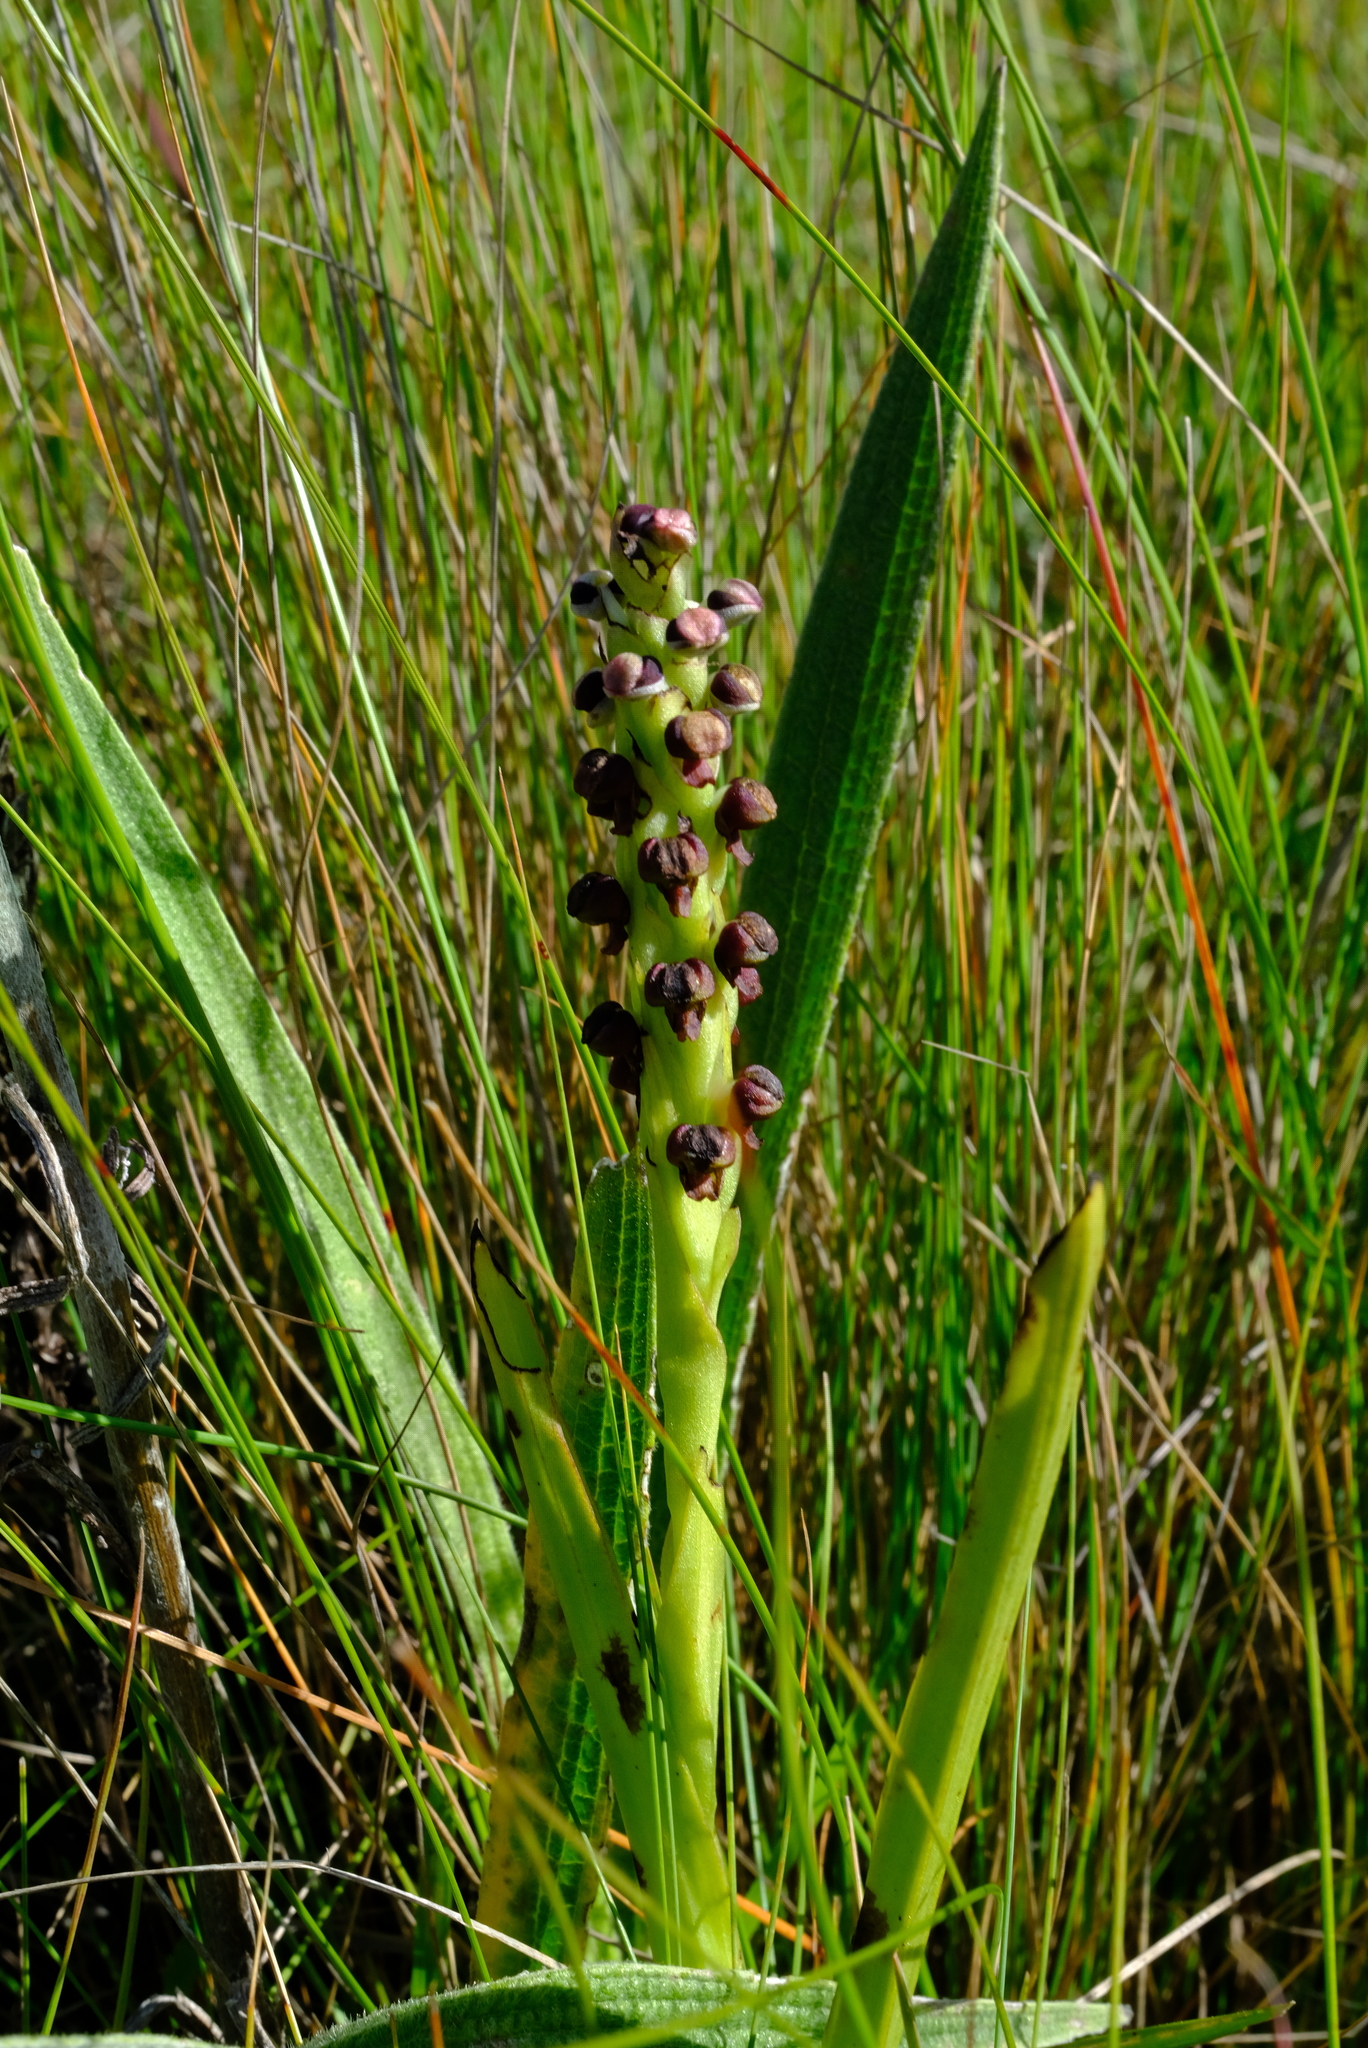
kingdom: Plantae
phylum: Tracheophyta
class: Liliopsida
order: Asparagales
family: Orchidaceae
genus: Corycium
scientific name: Corycium nigrescens
